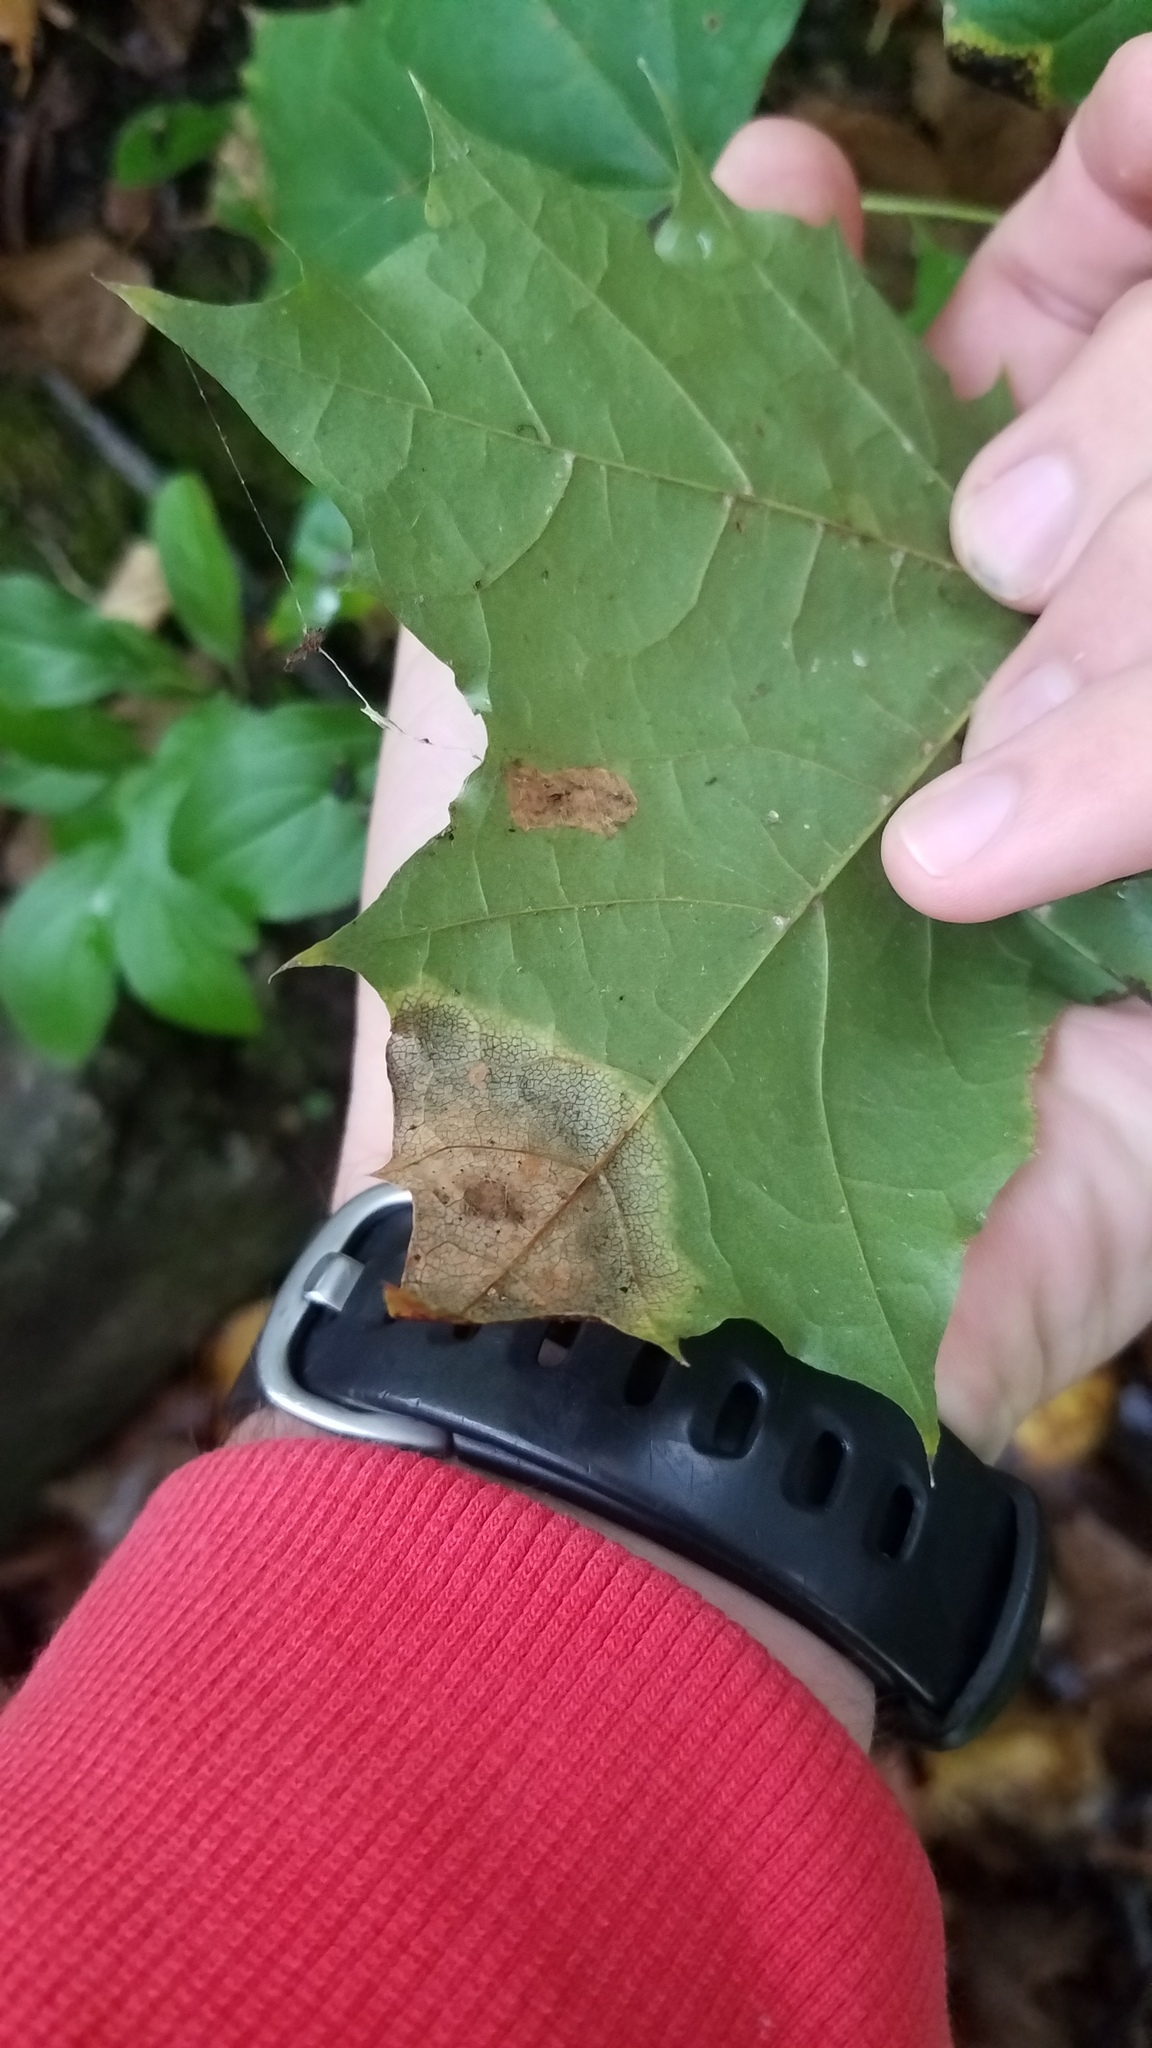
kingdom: Fungi
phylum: Ascomycota
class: Leotiomycetes
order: Rhytismatales
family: Rhytismataceae
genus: Rhytisma
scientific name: Rhytisma acerinum
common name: European tar spot
